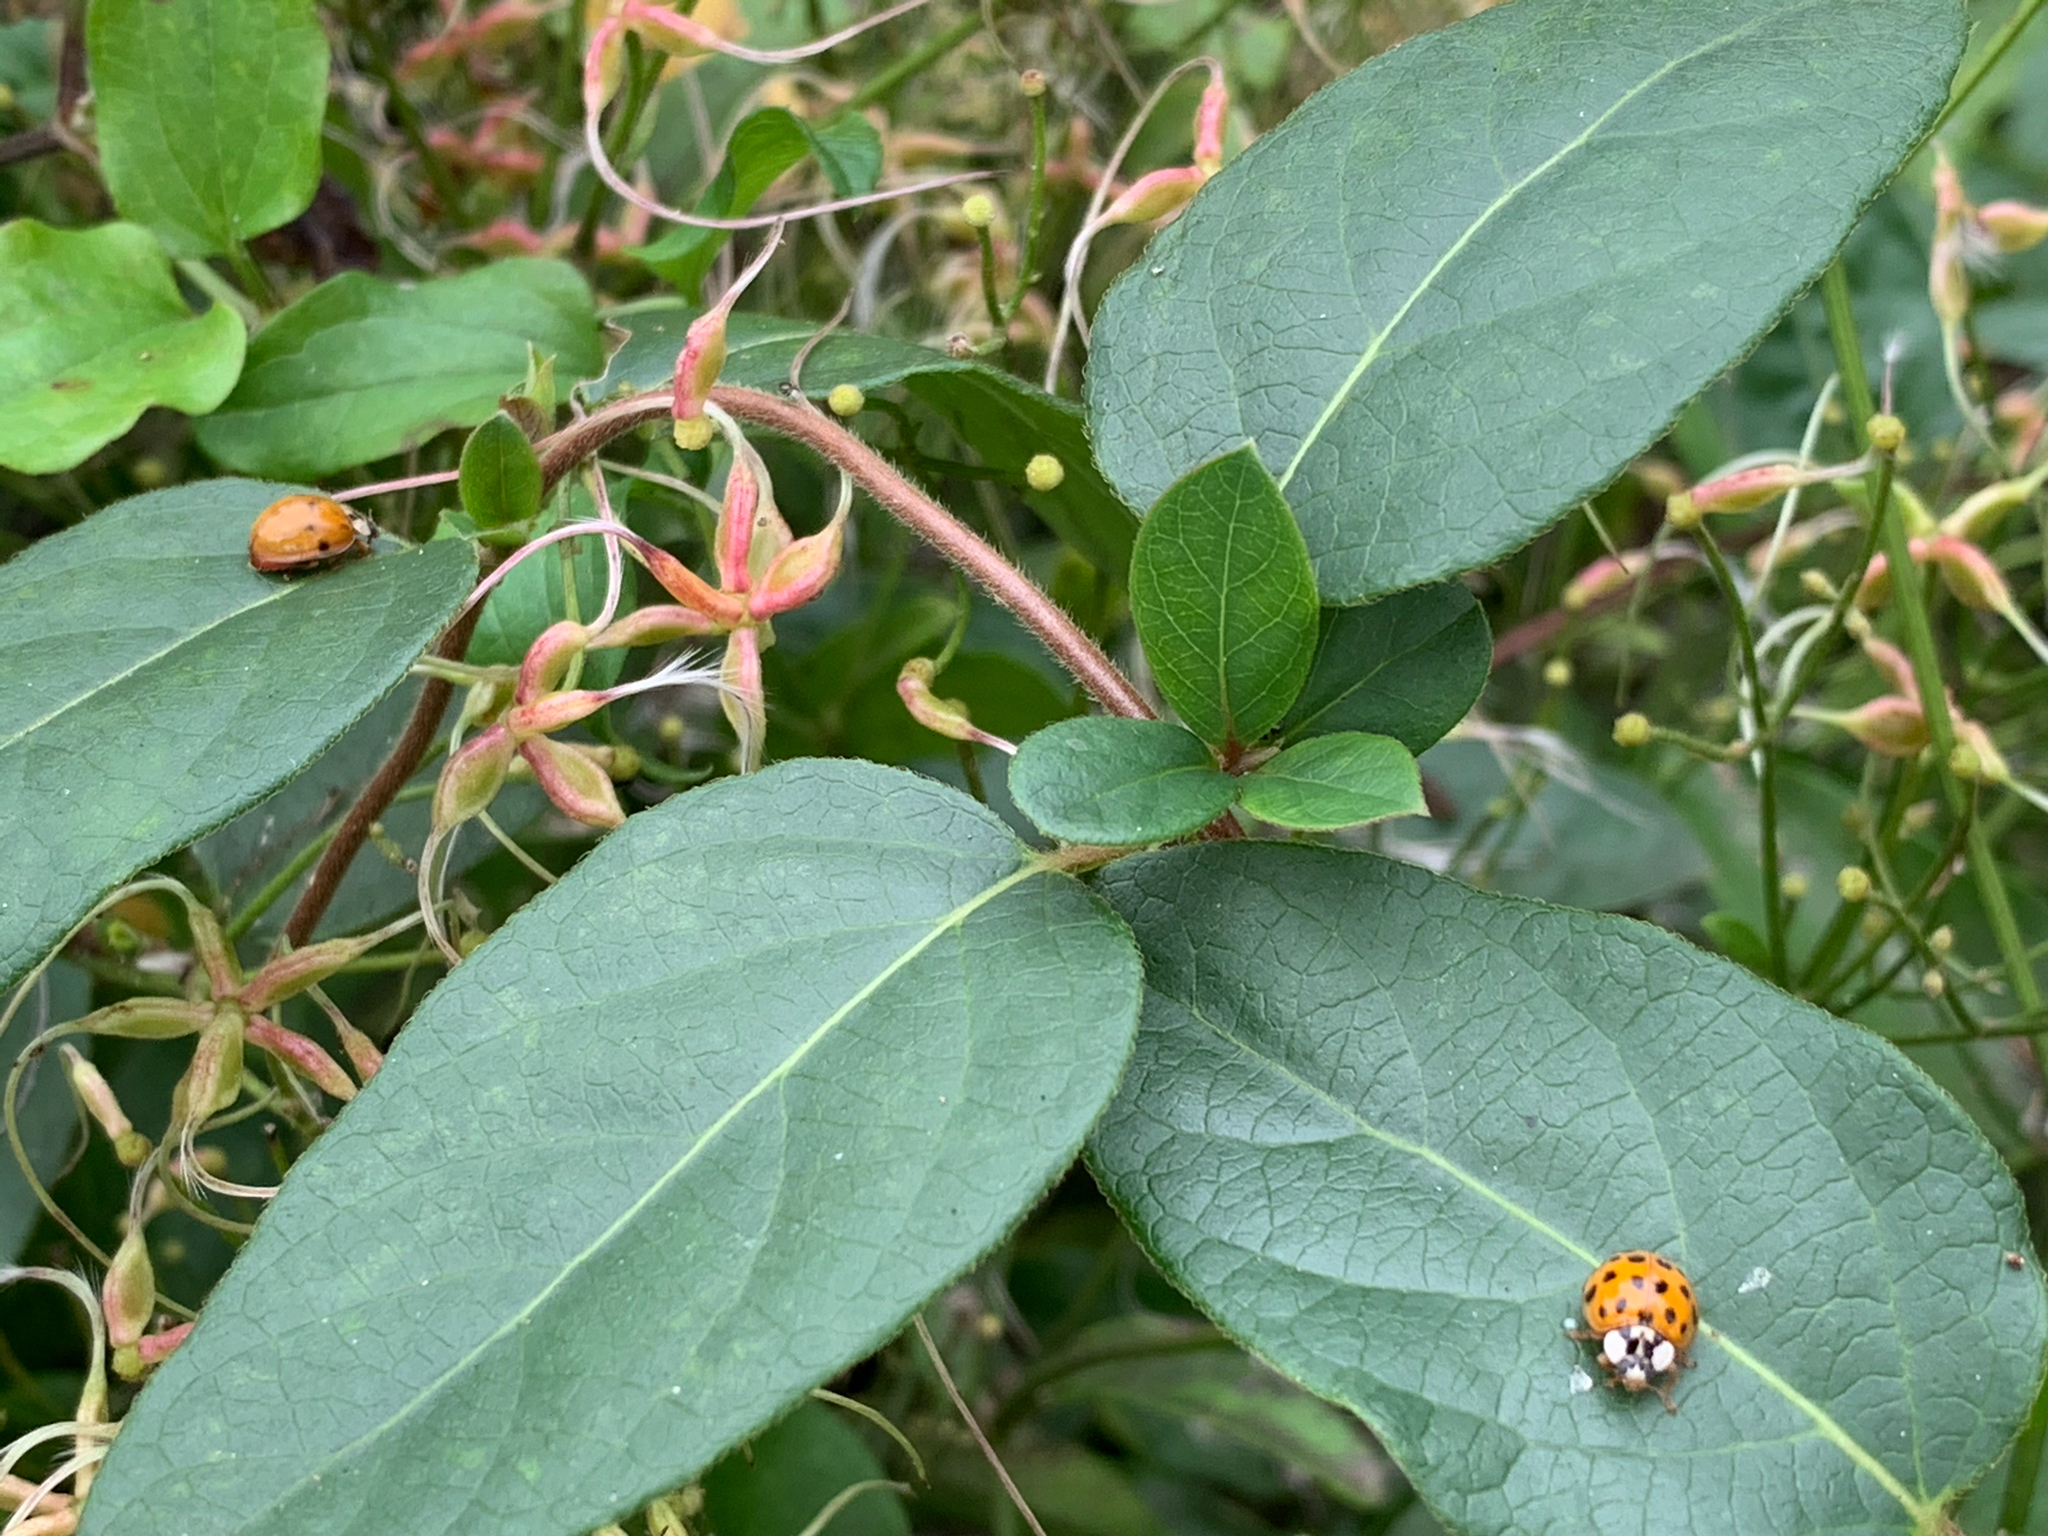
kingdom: Animalia
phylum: Arthropoda
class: Insecta
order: Coleoptera
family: Coccinellidae
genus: Harmonia
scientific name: Harmonia axyridis
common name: Harlequin ladybird
